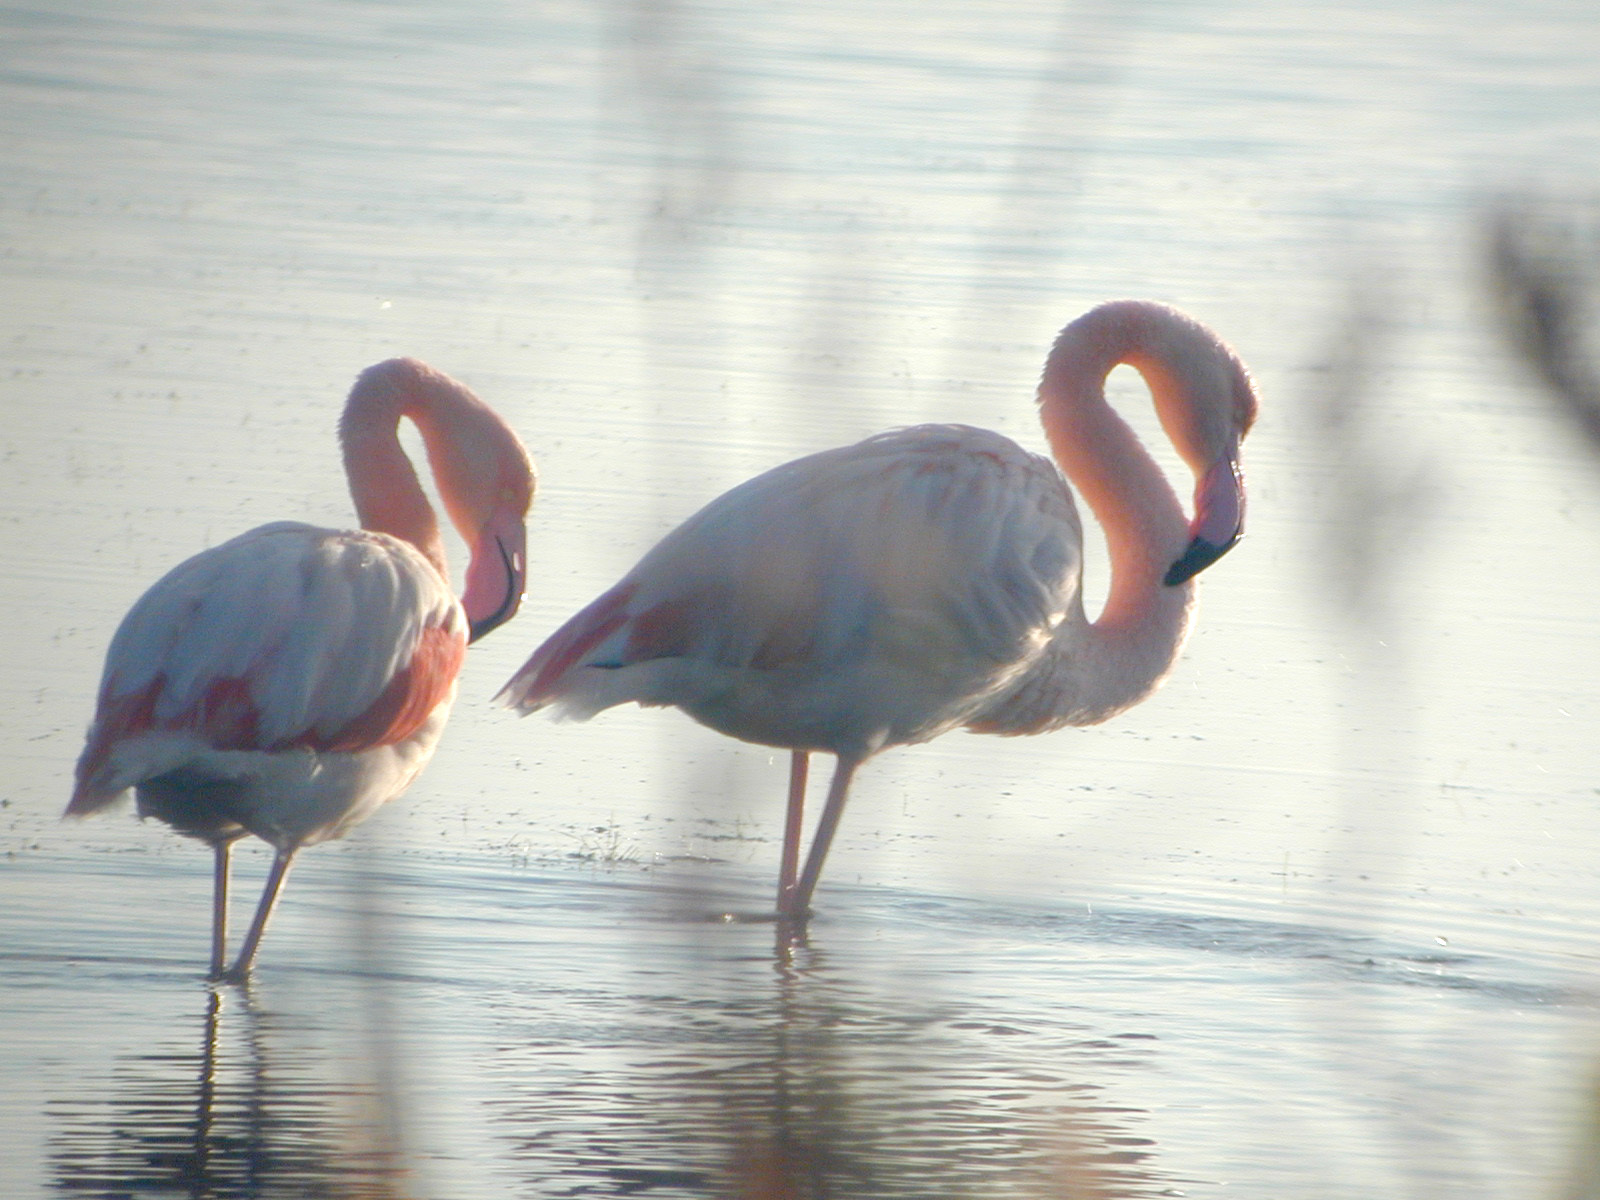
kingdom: Animalia
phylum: Chordata
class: Aves
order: Phoenicopteriformes
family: Phoenicopteridae
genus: Phoenicopterus
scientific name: Phoenicopterus roseus
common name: Greater flamingo
